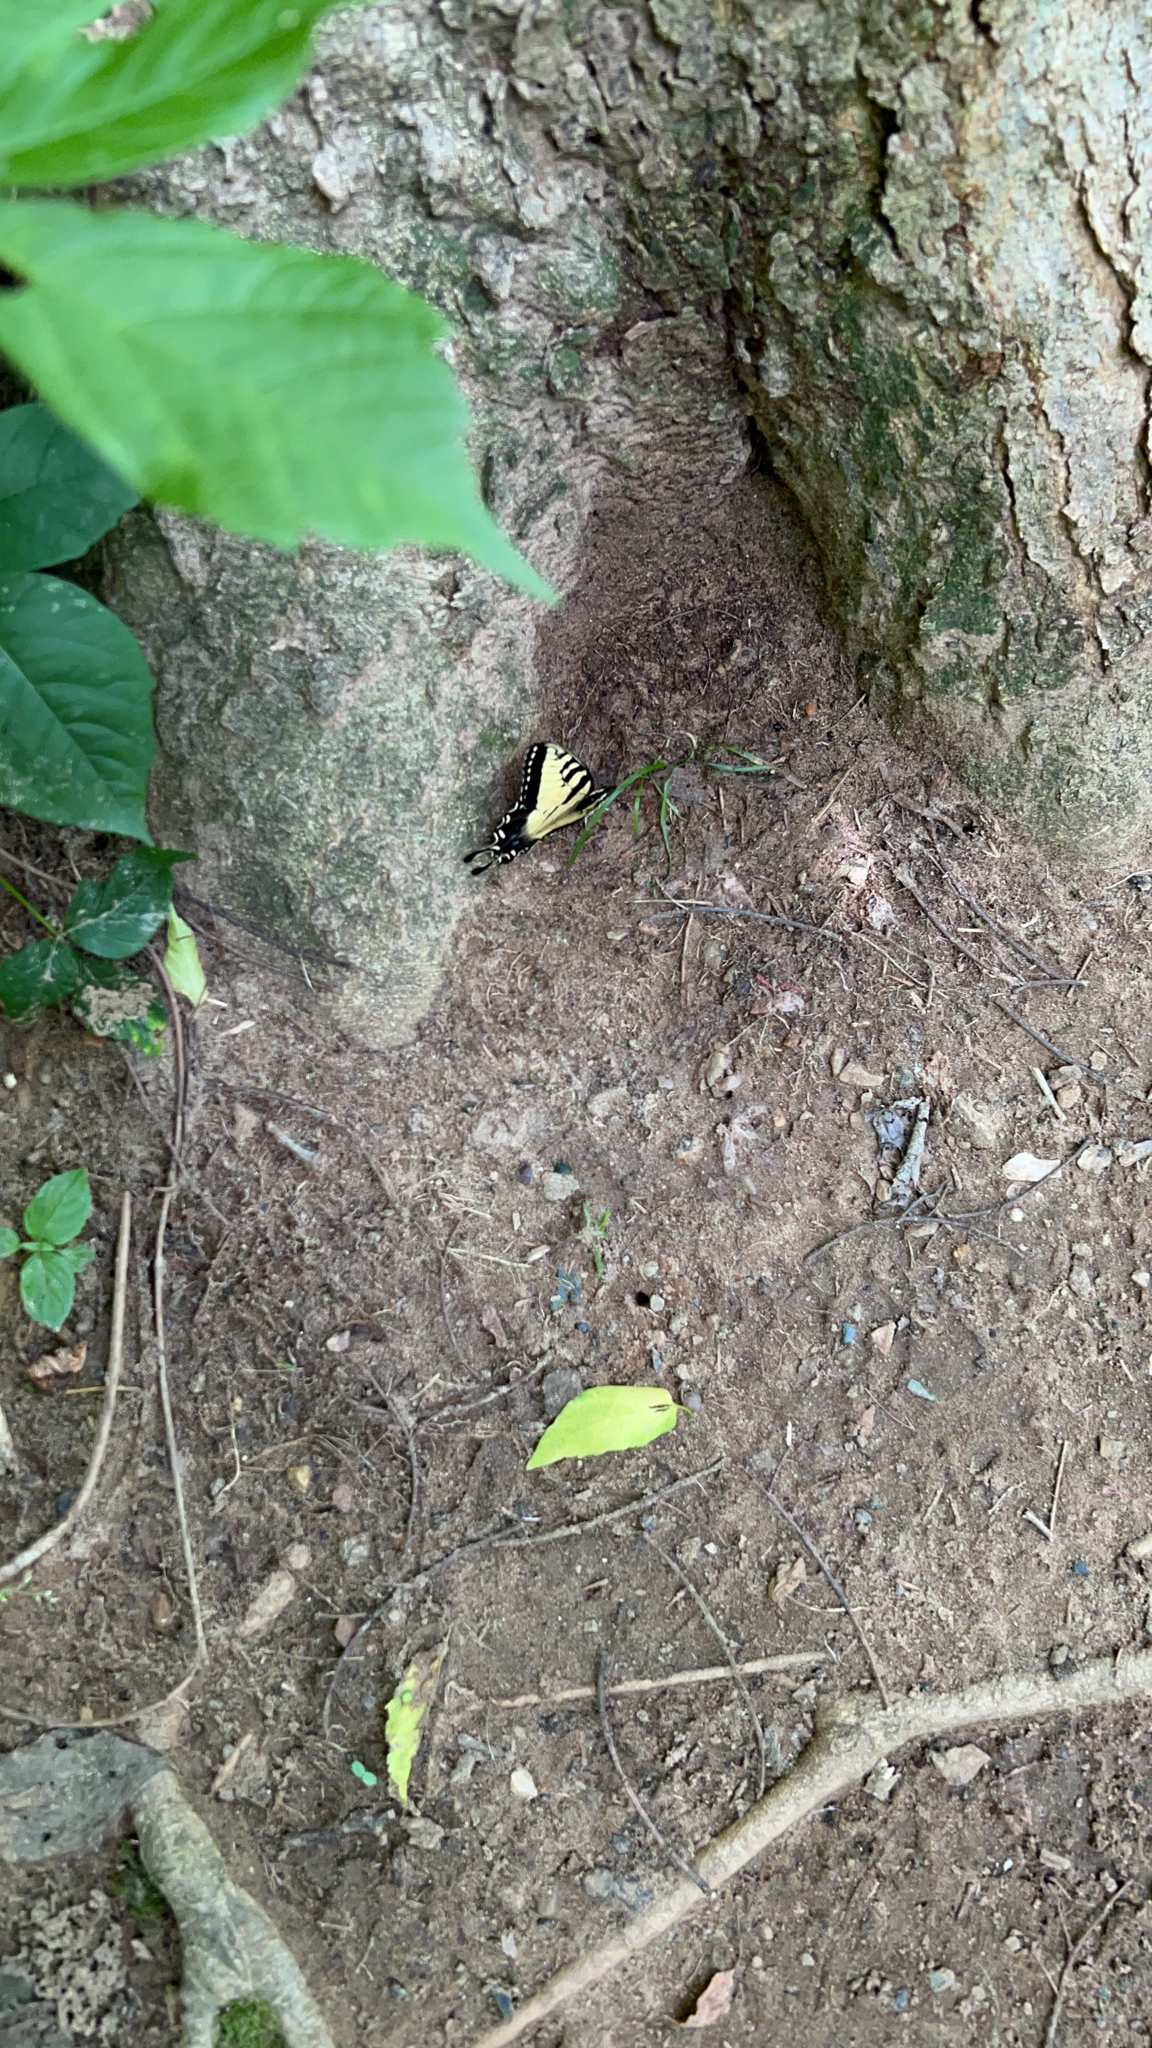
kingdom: Animalia
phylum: Arthropoda
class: Insecta
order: Lepidoptera
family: Papilionidae
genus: Papilio
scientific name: Papilio glaucus
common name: Tiger swallowtail
